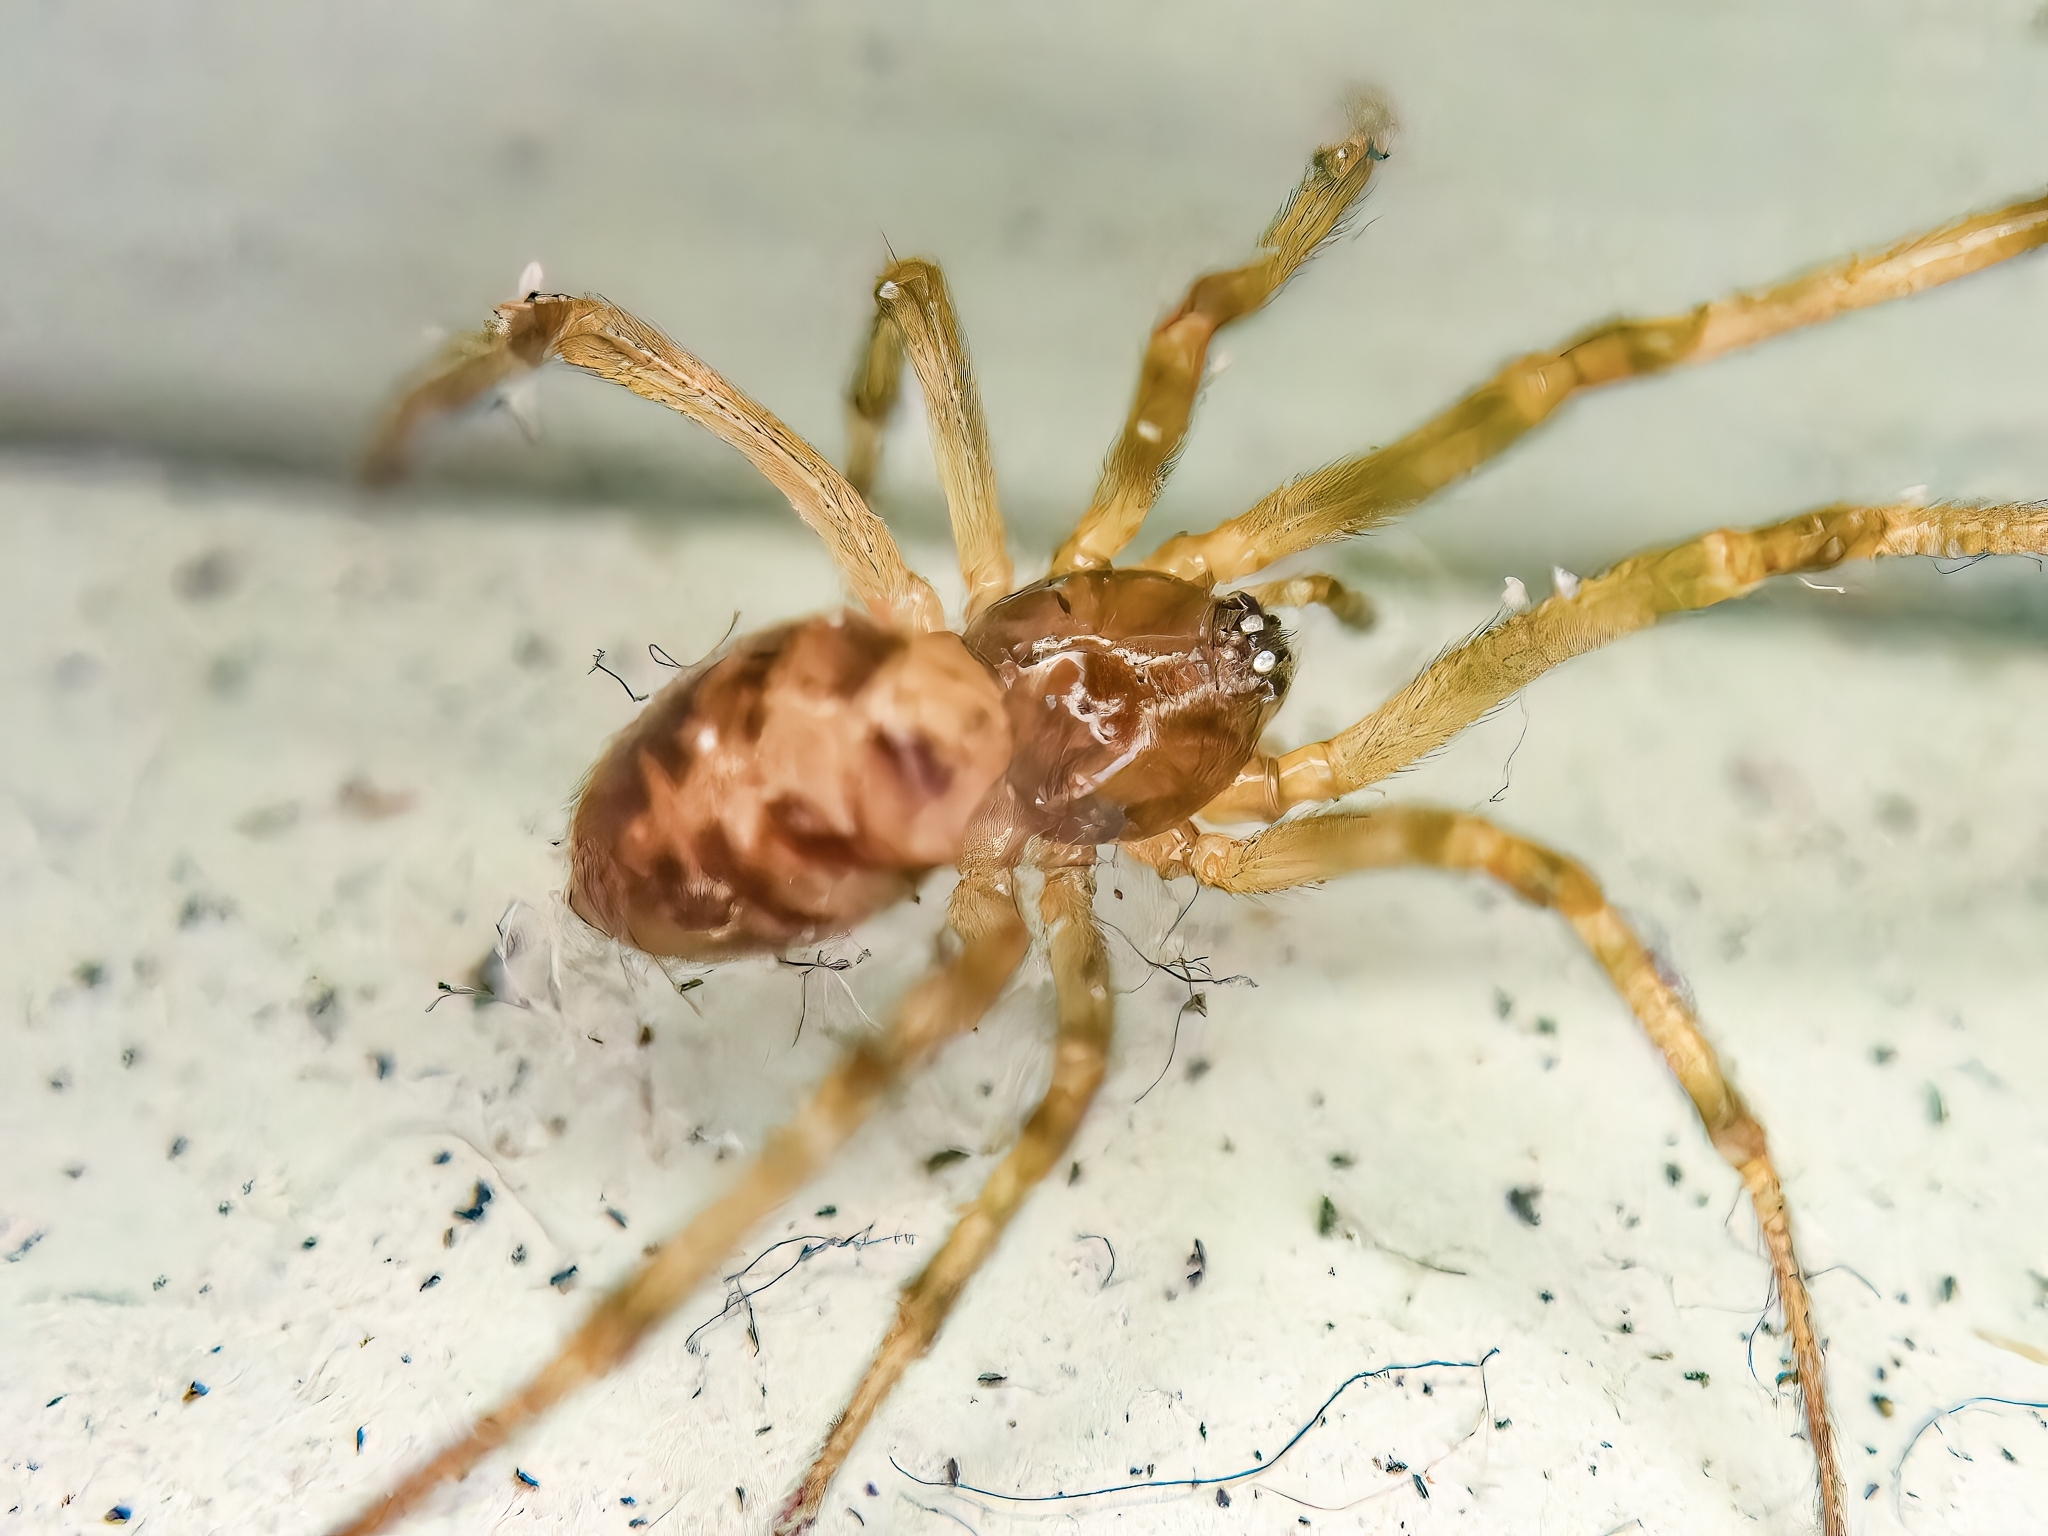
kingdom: Animalia
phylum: Arthropoda
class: Arachnida
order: Araneae
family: Theridiidae
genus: Steatoda
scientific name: Steatoda triangulosa
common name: Triangulate bud spider
